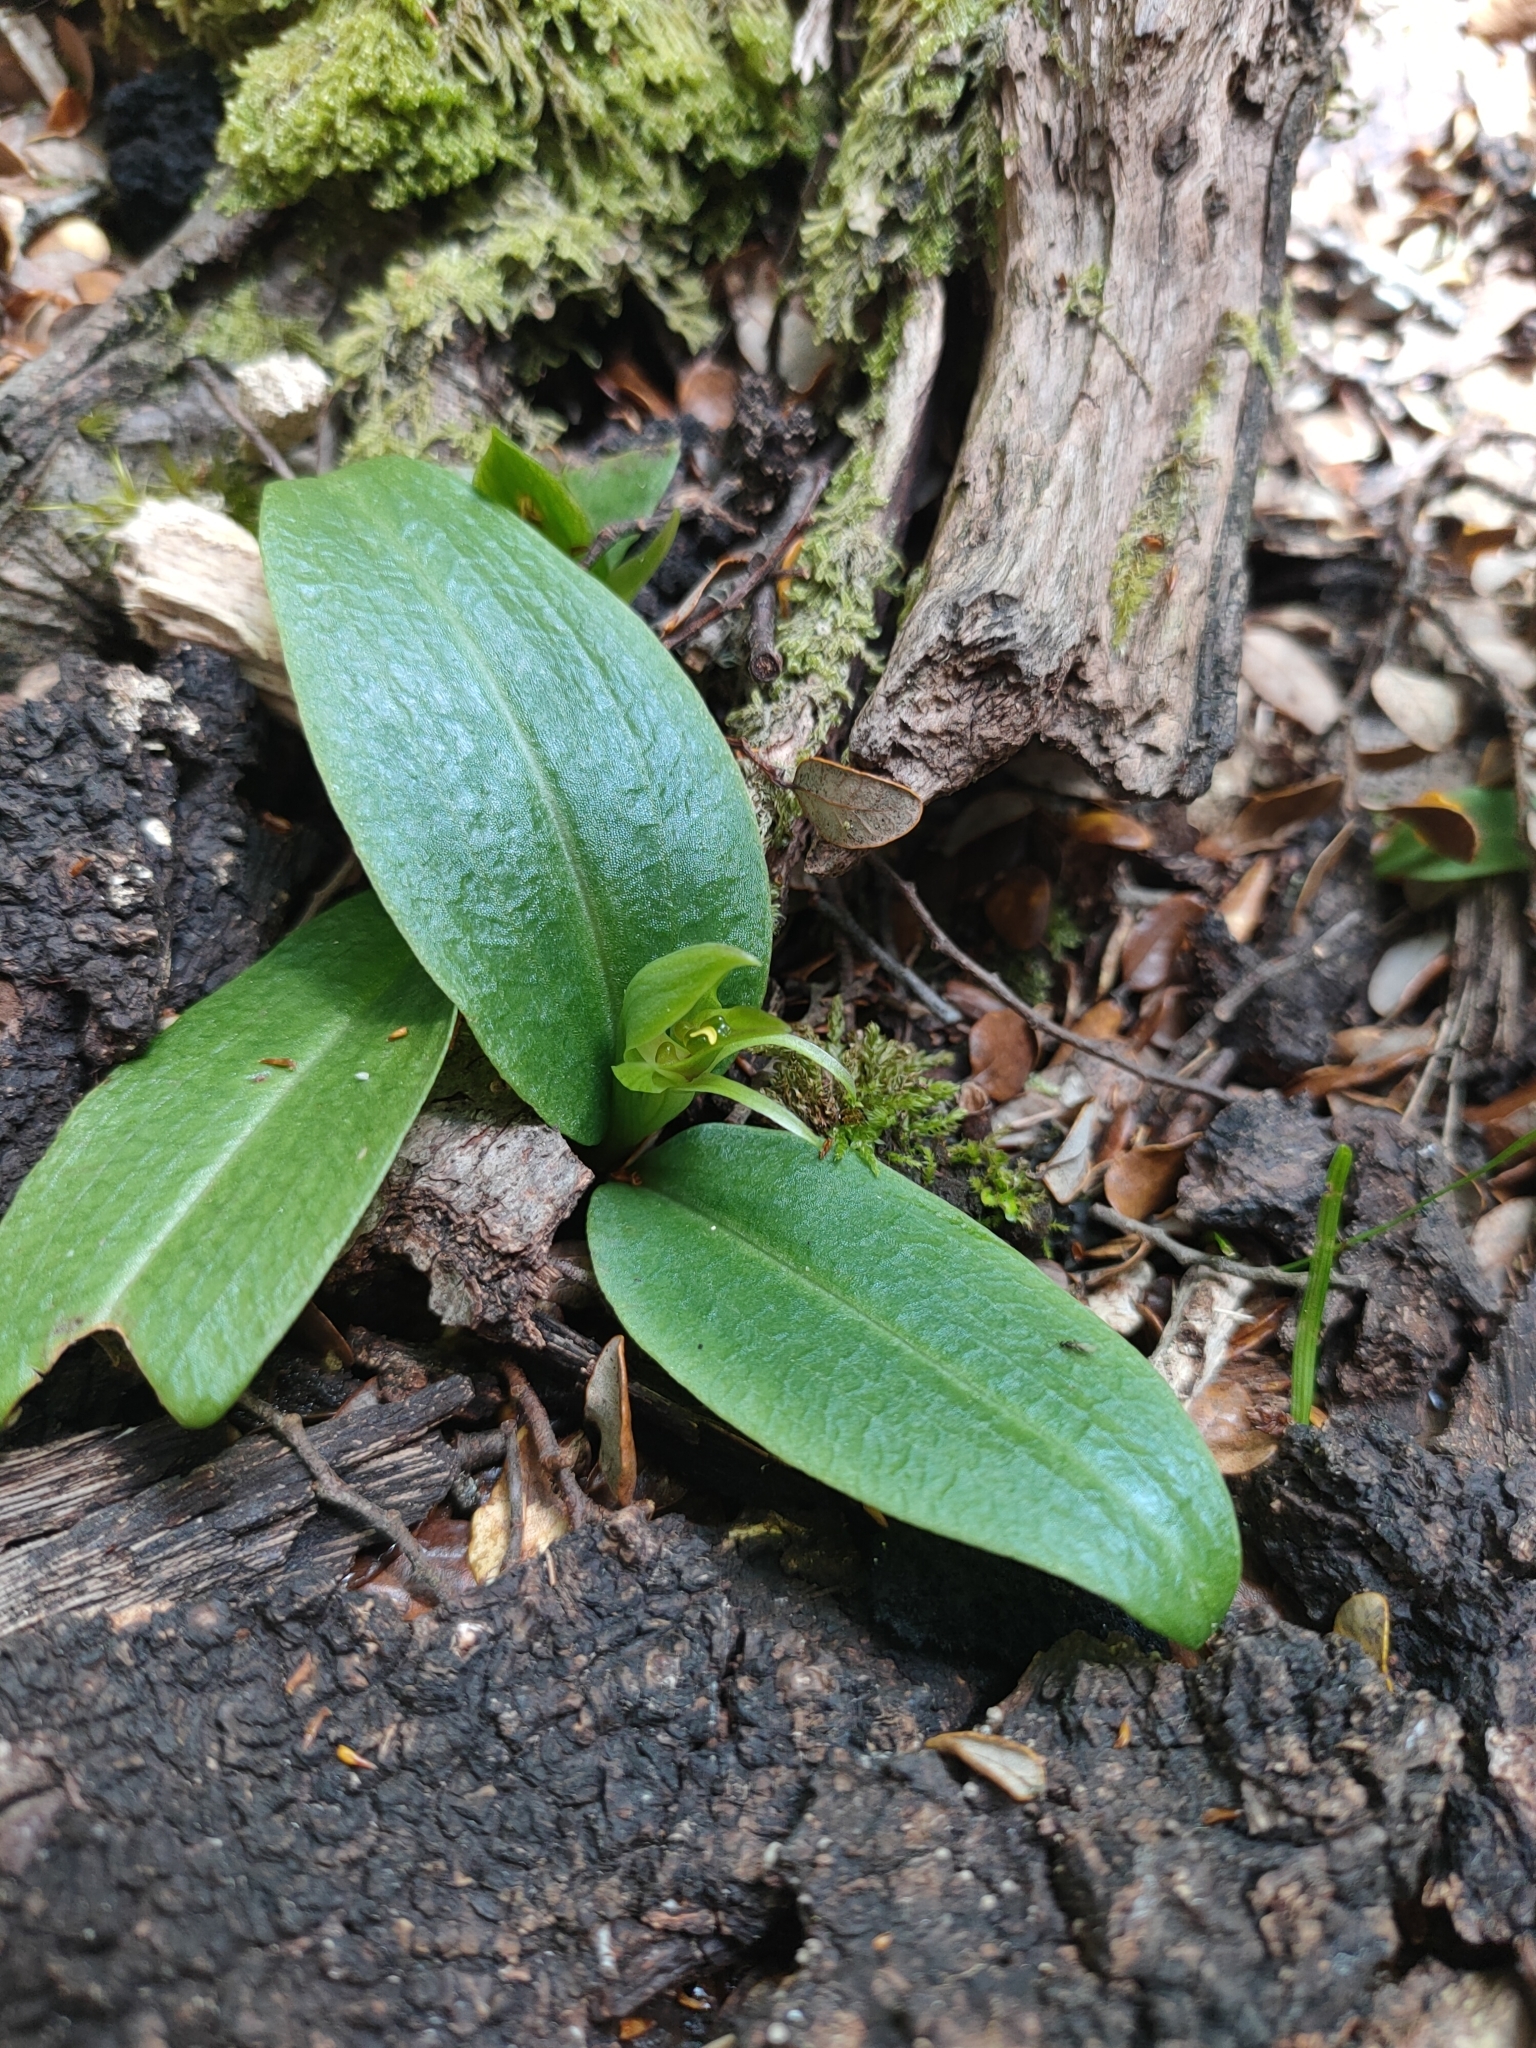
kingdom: Plantae
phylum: Tracheophyta
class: Liliopsida
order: Asparagales
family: Orchidaceae
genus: Chiloglottis
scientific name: Chiloglottis cornuta
